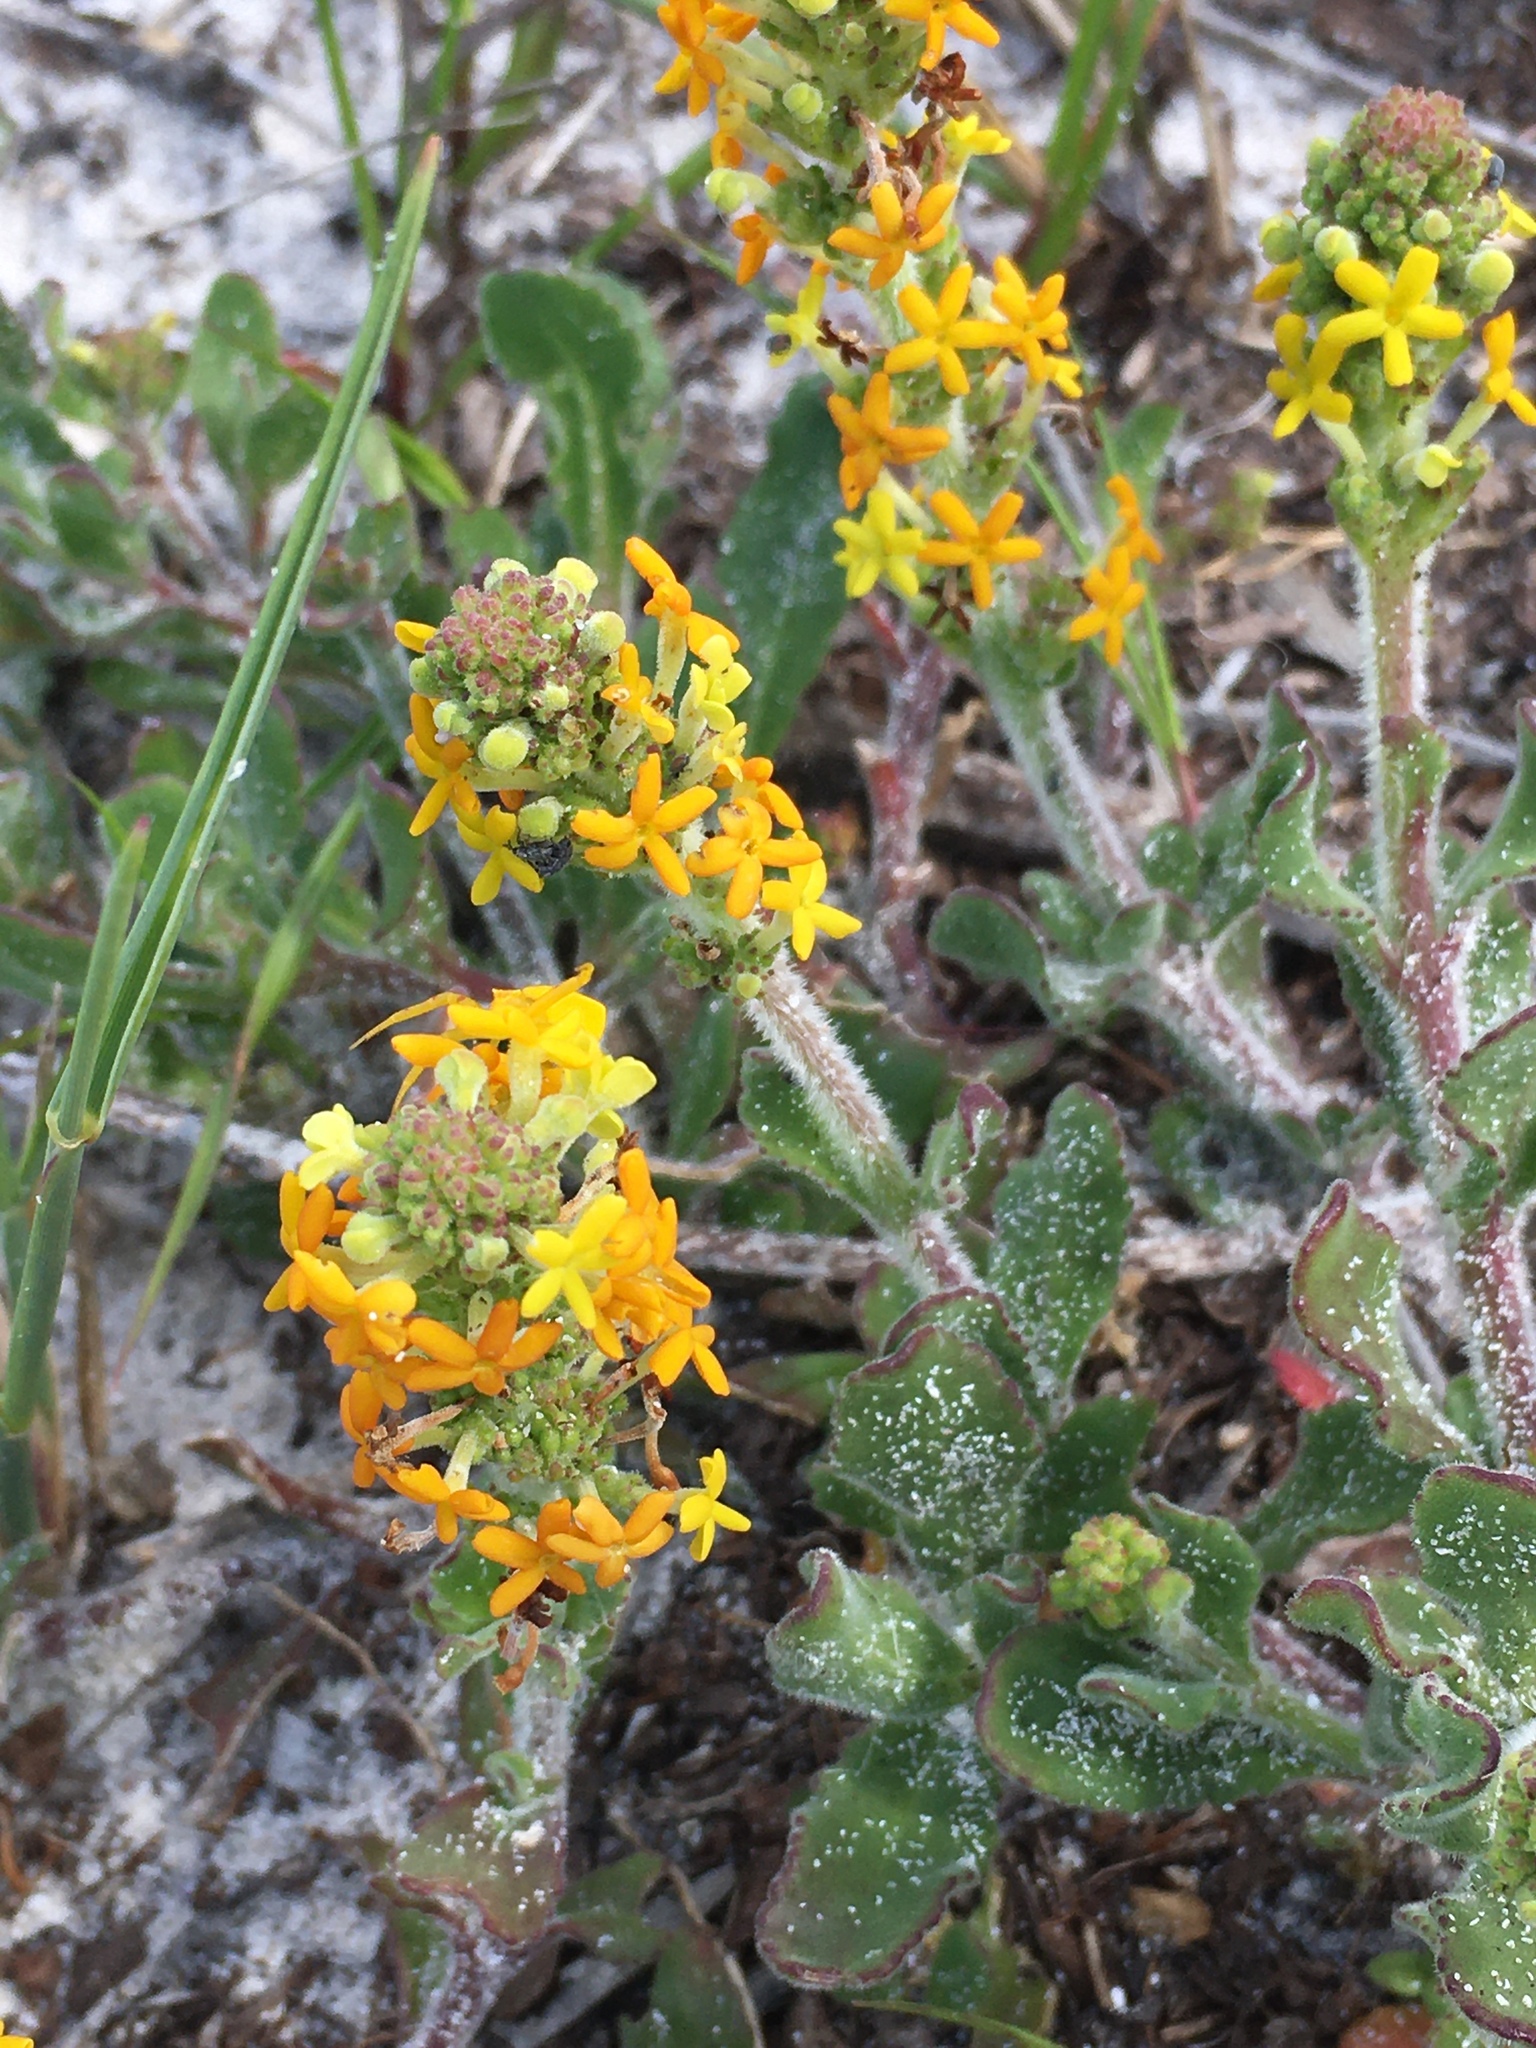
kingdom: Plantae
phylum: Tracheophyta
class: Magnoliopsida
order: Lamiales
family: Scrophulariaceae
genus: Manulea
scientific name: Manulea tomentosa
